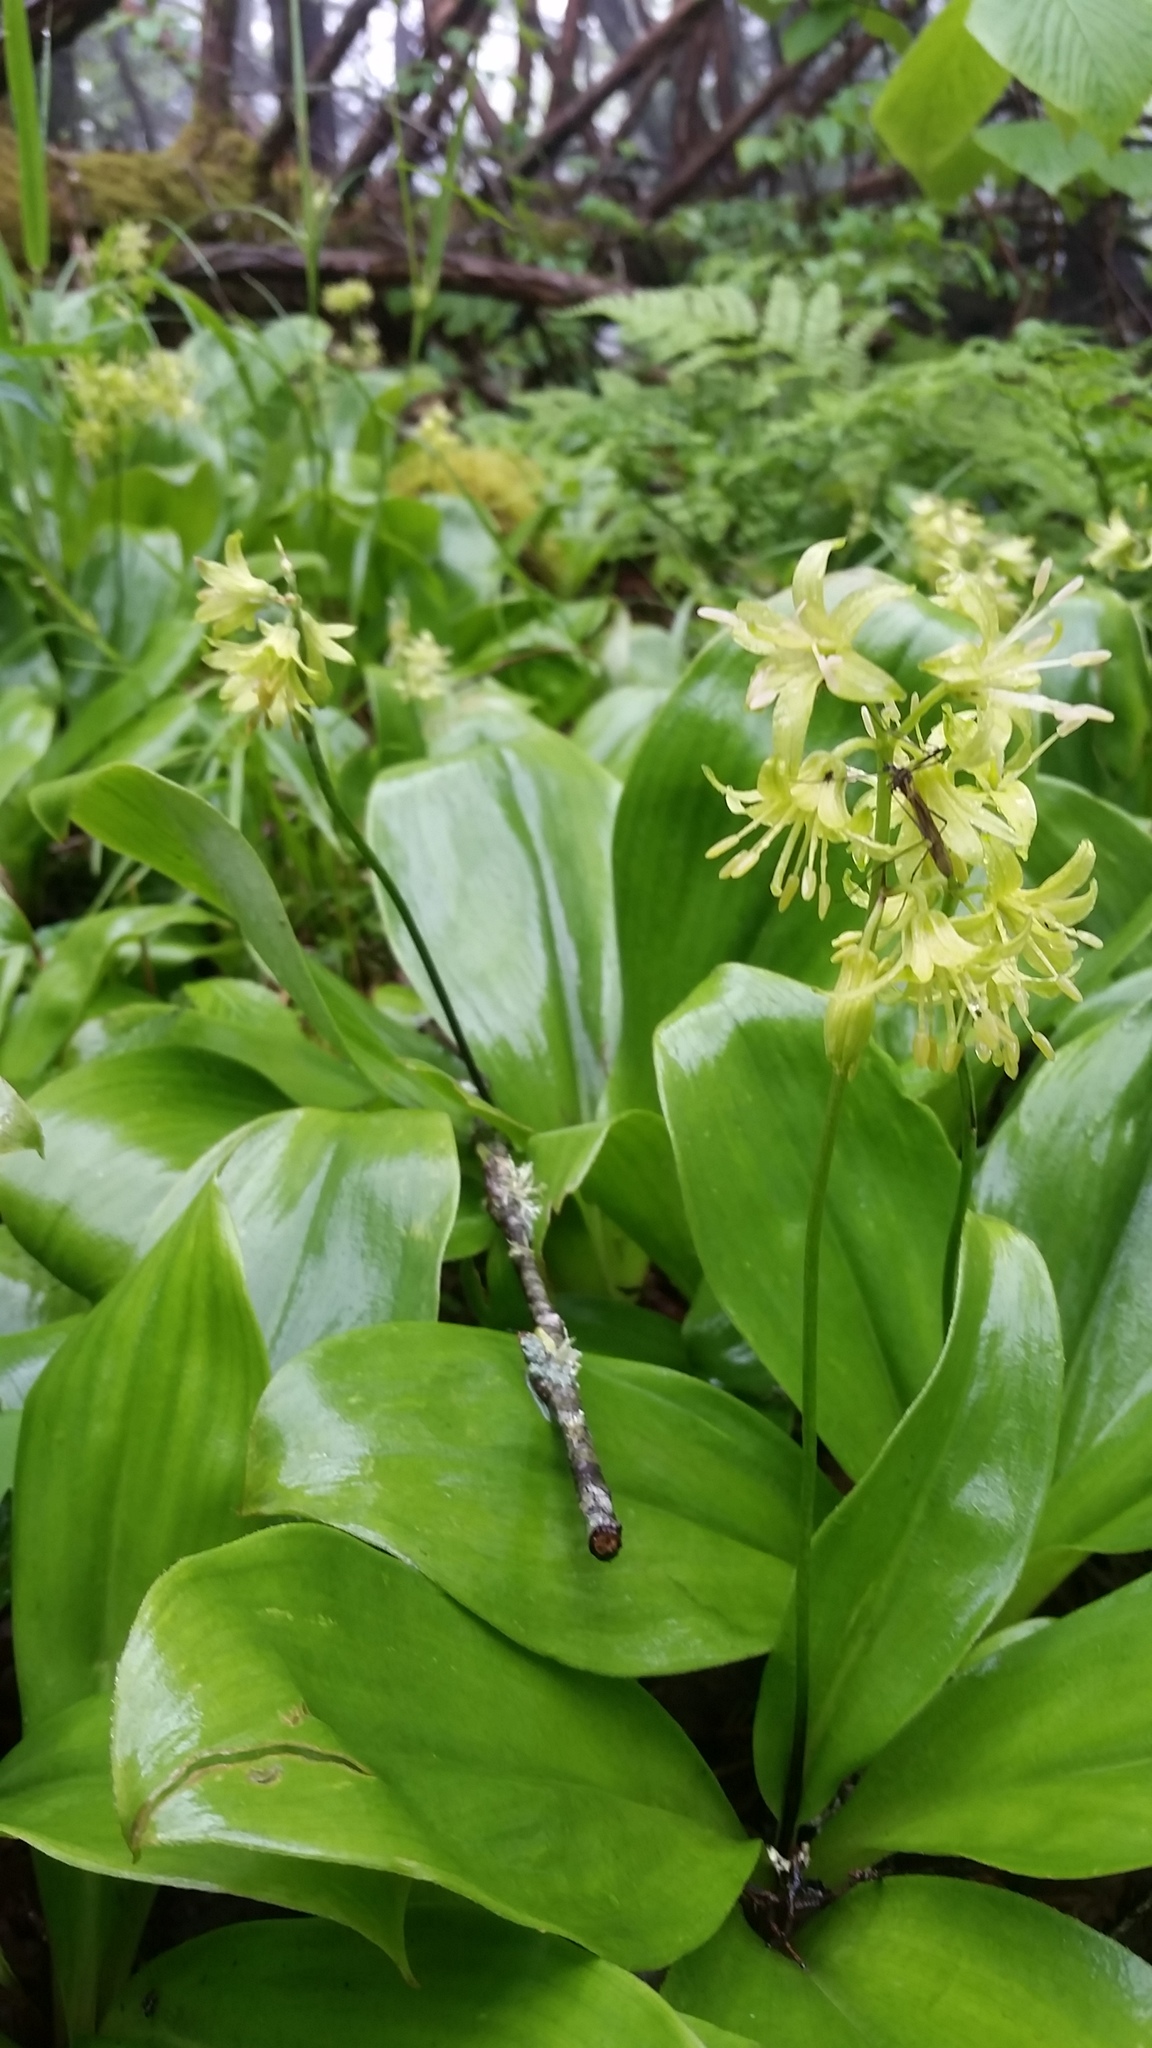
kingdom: Plantae
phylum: Tracheophyta
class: Liliopsida
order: Liliales
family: Liliaceae
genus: Clintonia
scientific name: Clintonia borealis
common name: Yellow clintonia
